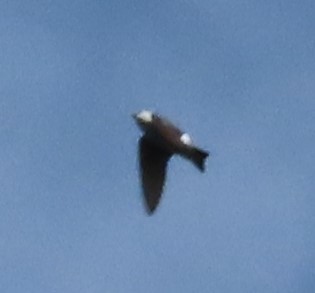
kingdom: Animalia
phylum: Chordata
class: Aves
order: Passeriformes
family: Hirundinidae
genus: Tachycineta
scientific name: Tachycineta thalassina
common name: Violet-green swallow
